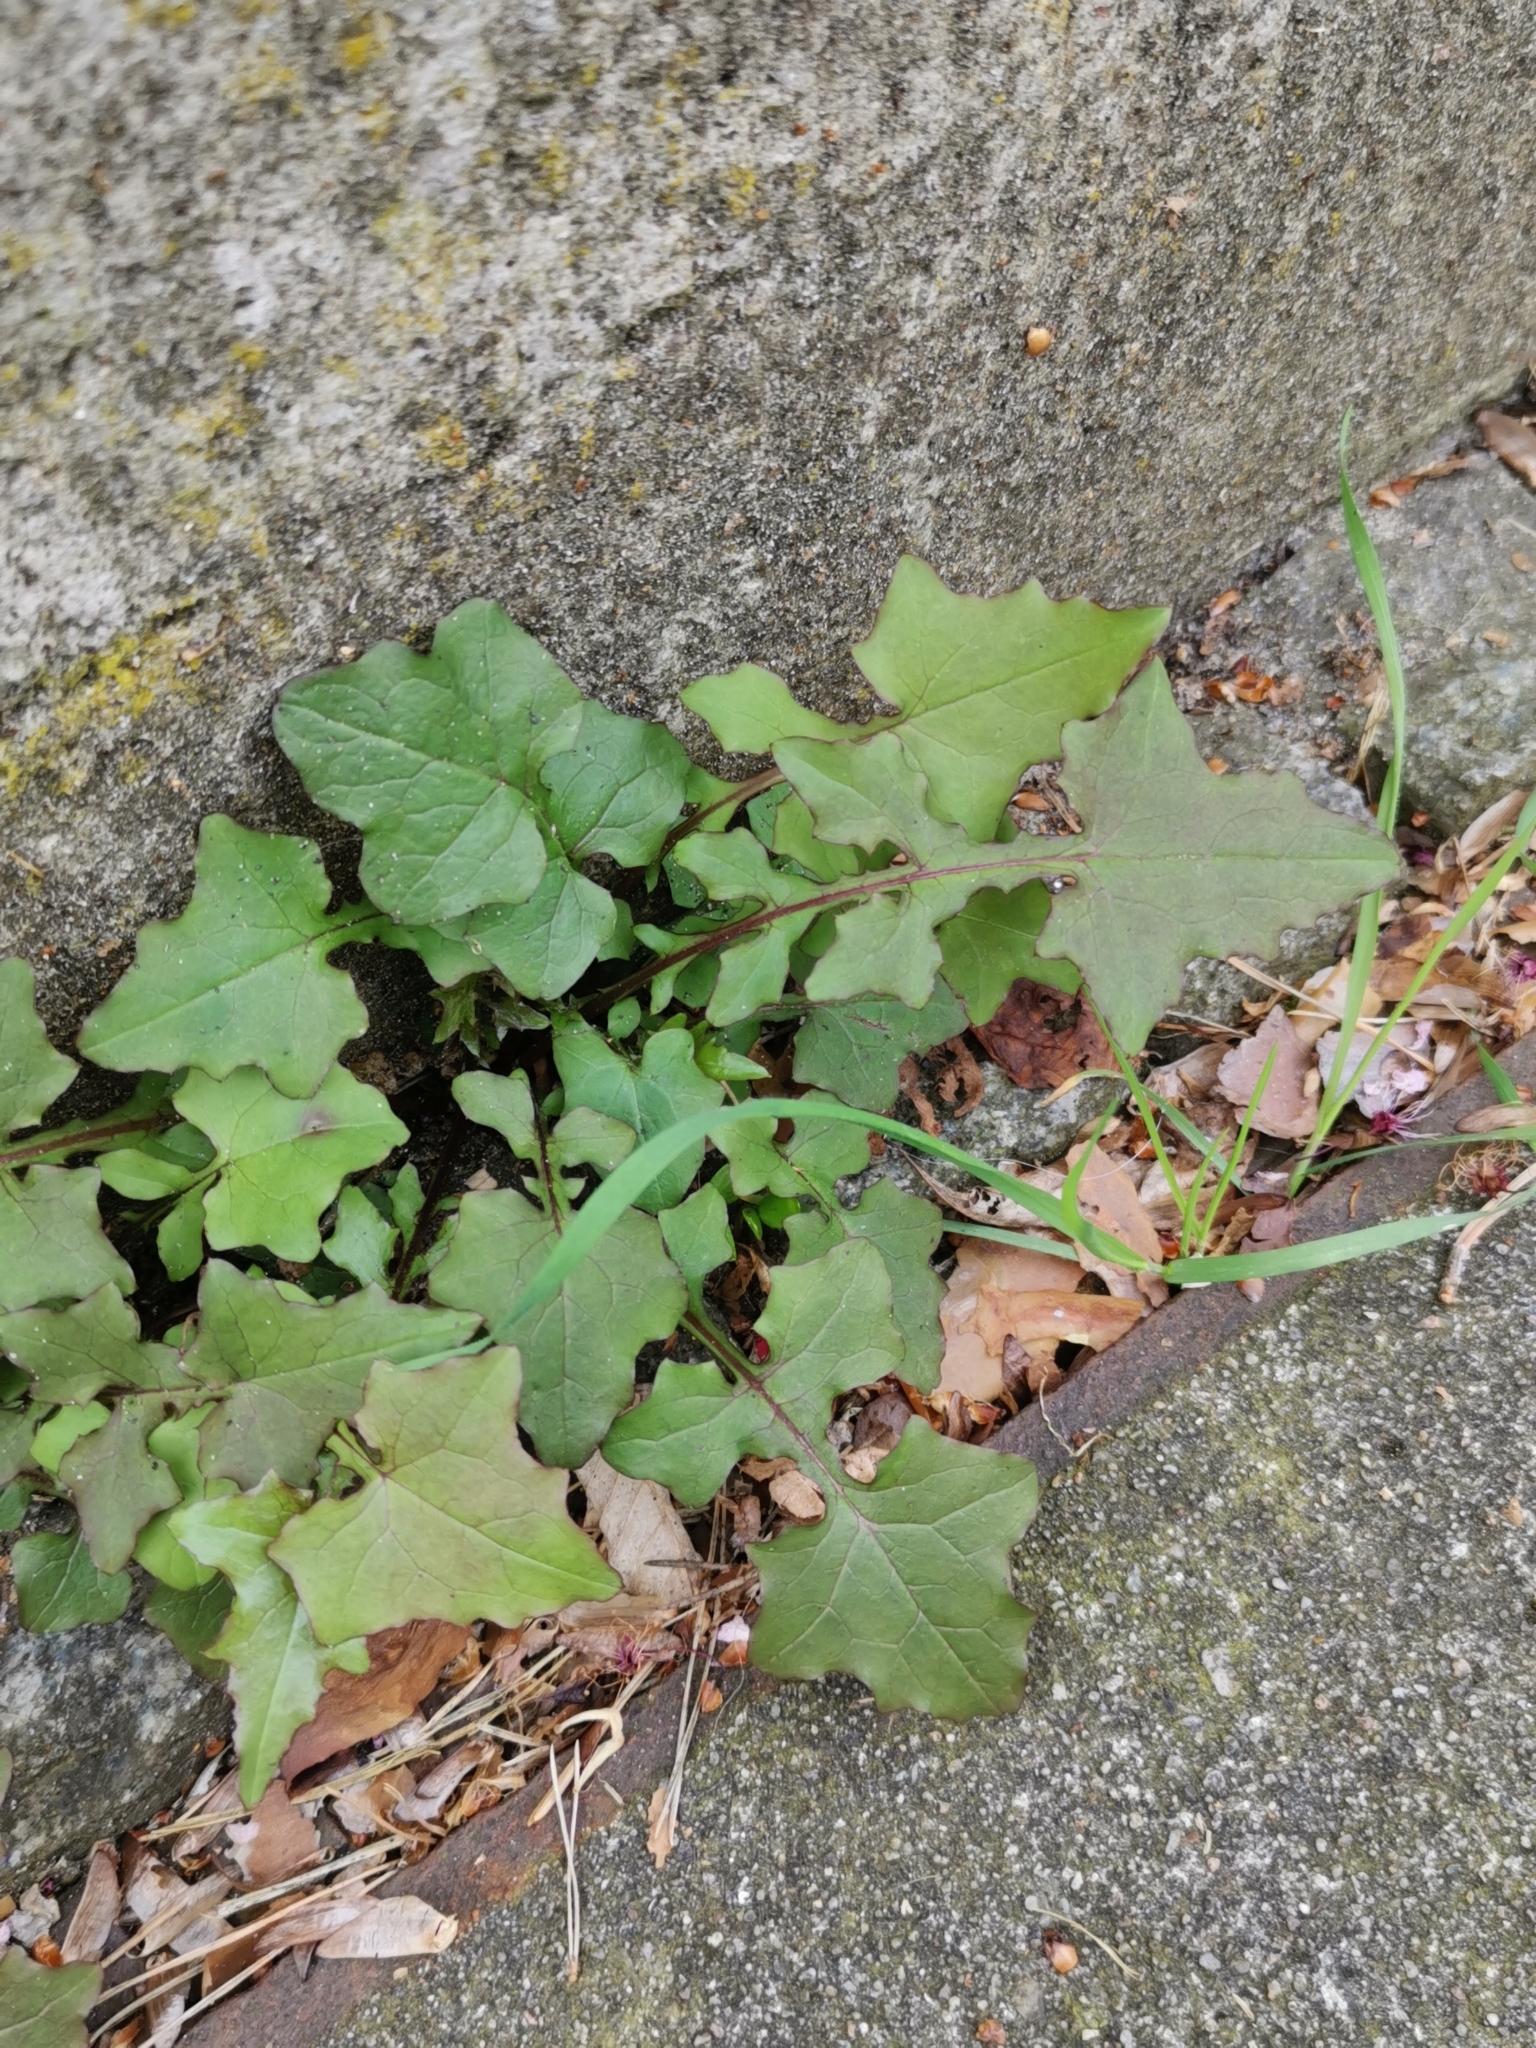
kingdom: Plantae
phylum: Tracheophyta
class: Magnoliopsida
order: Asterales
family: Asteraceae
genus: Mycelis
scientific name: Mycelis muralis
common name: Wall lettuce
